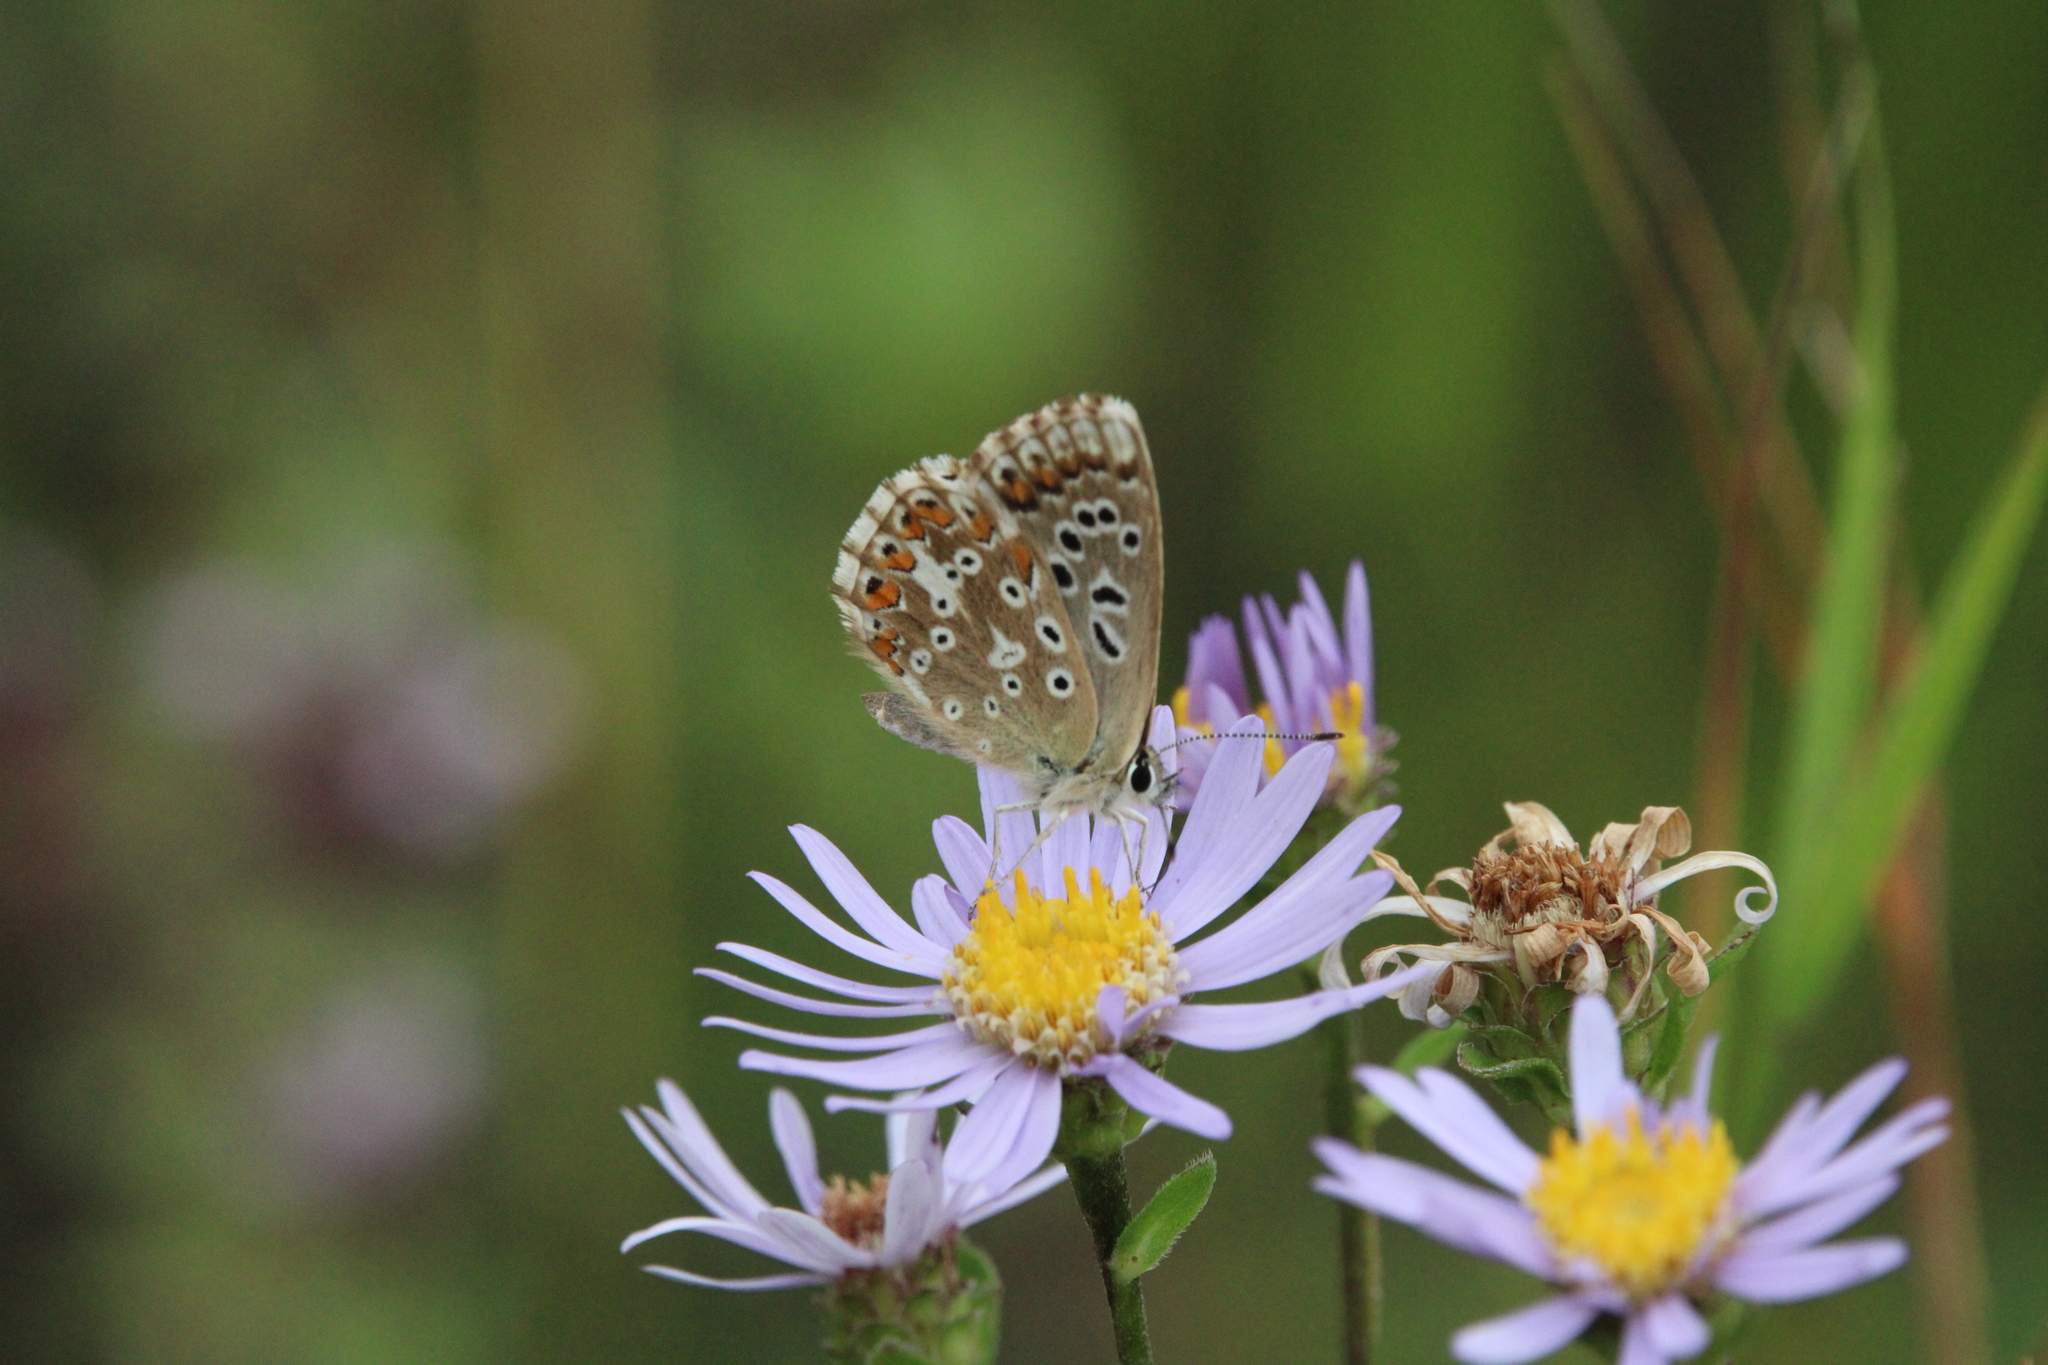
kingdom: Animalia
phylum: Arthropoda
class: Insecta
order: Lepidoptera
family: Lycaenidae
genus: Lysandra
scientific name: Lysandra coridon
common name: Chalkhill blue
